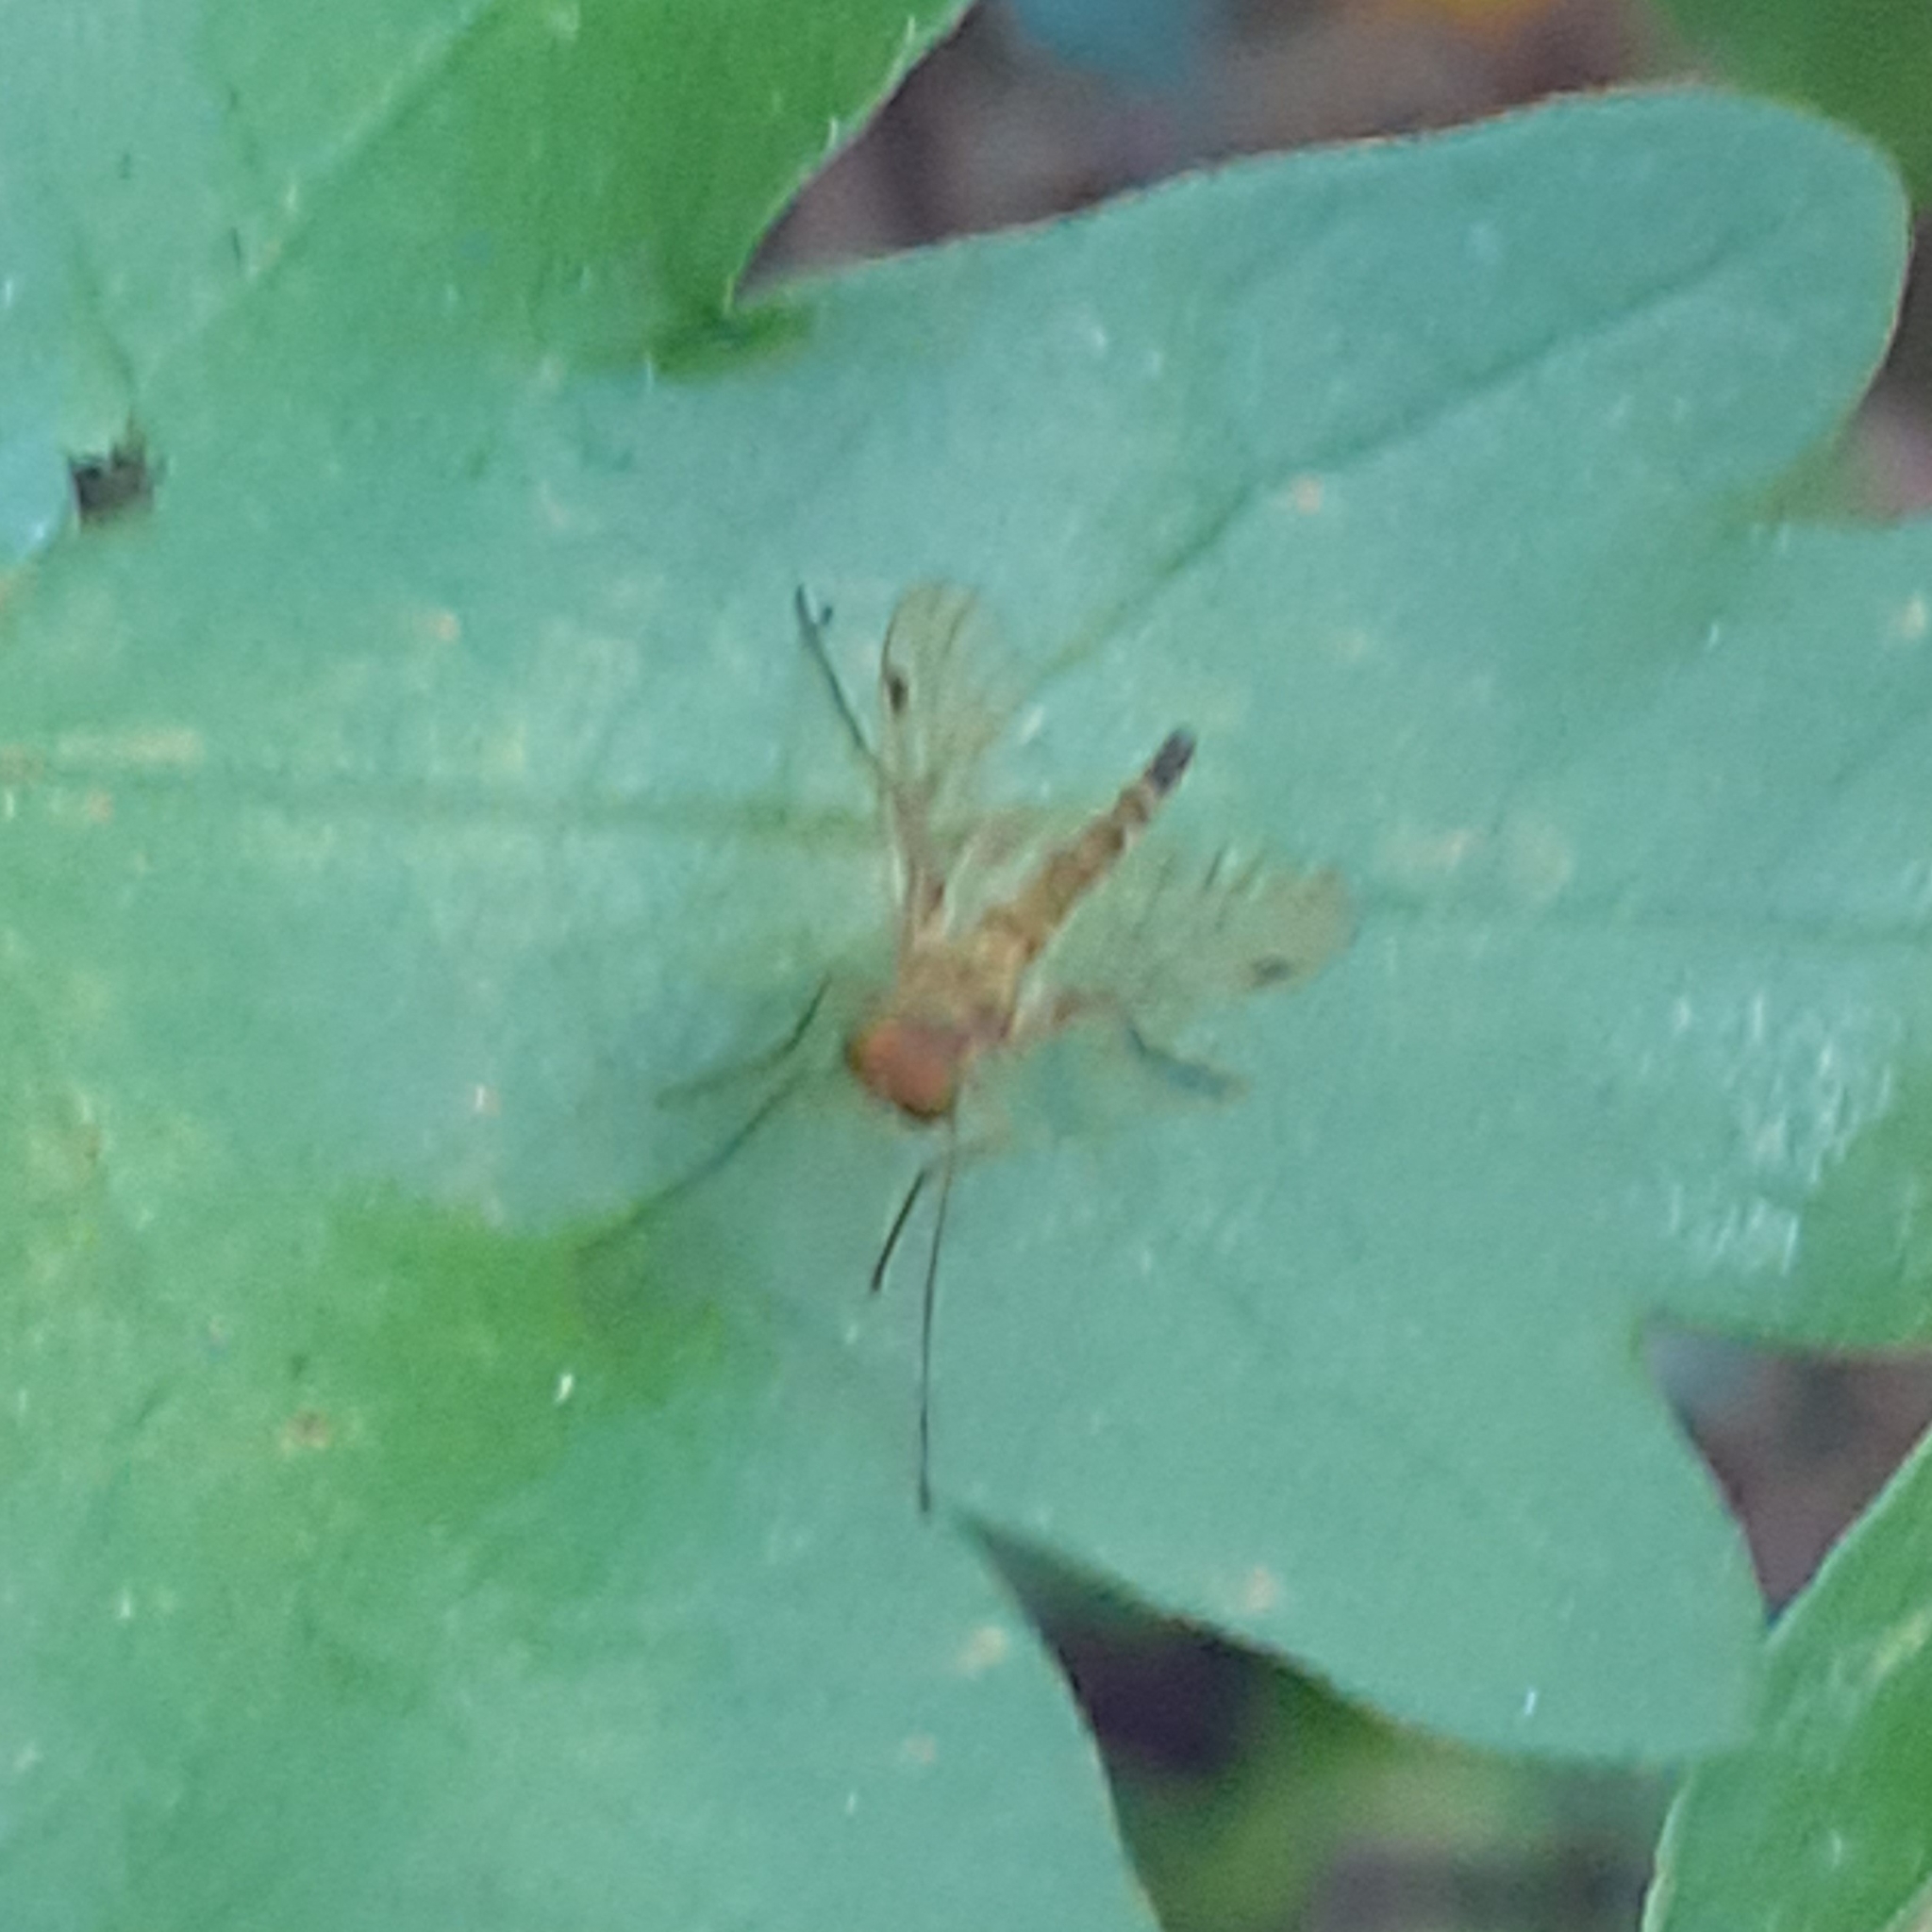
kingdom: Animalia
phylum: Arthropoda
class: Insecta
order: Diptera
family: Rhagionidae
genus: Chrysopilus
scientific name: Chrysopilus asiliformis
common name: Little snipefly
